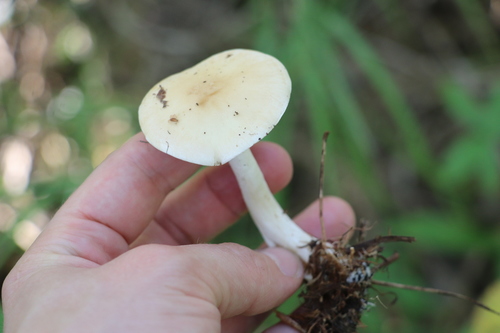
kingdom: Fungi
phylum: Basidiomycota
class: Agaricomycetes
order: Agaricales
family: Hymenogastraceae
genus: Hebeloma
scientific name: Hebeloma
